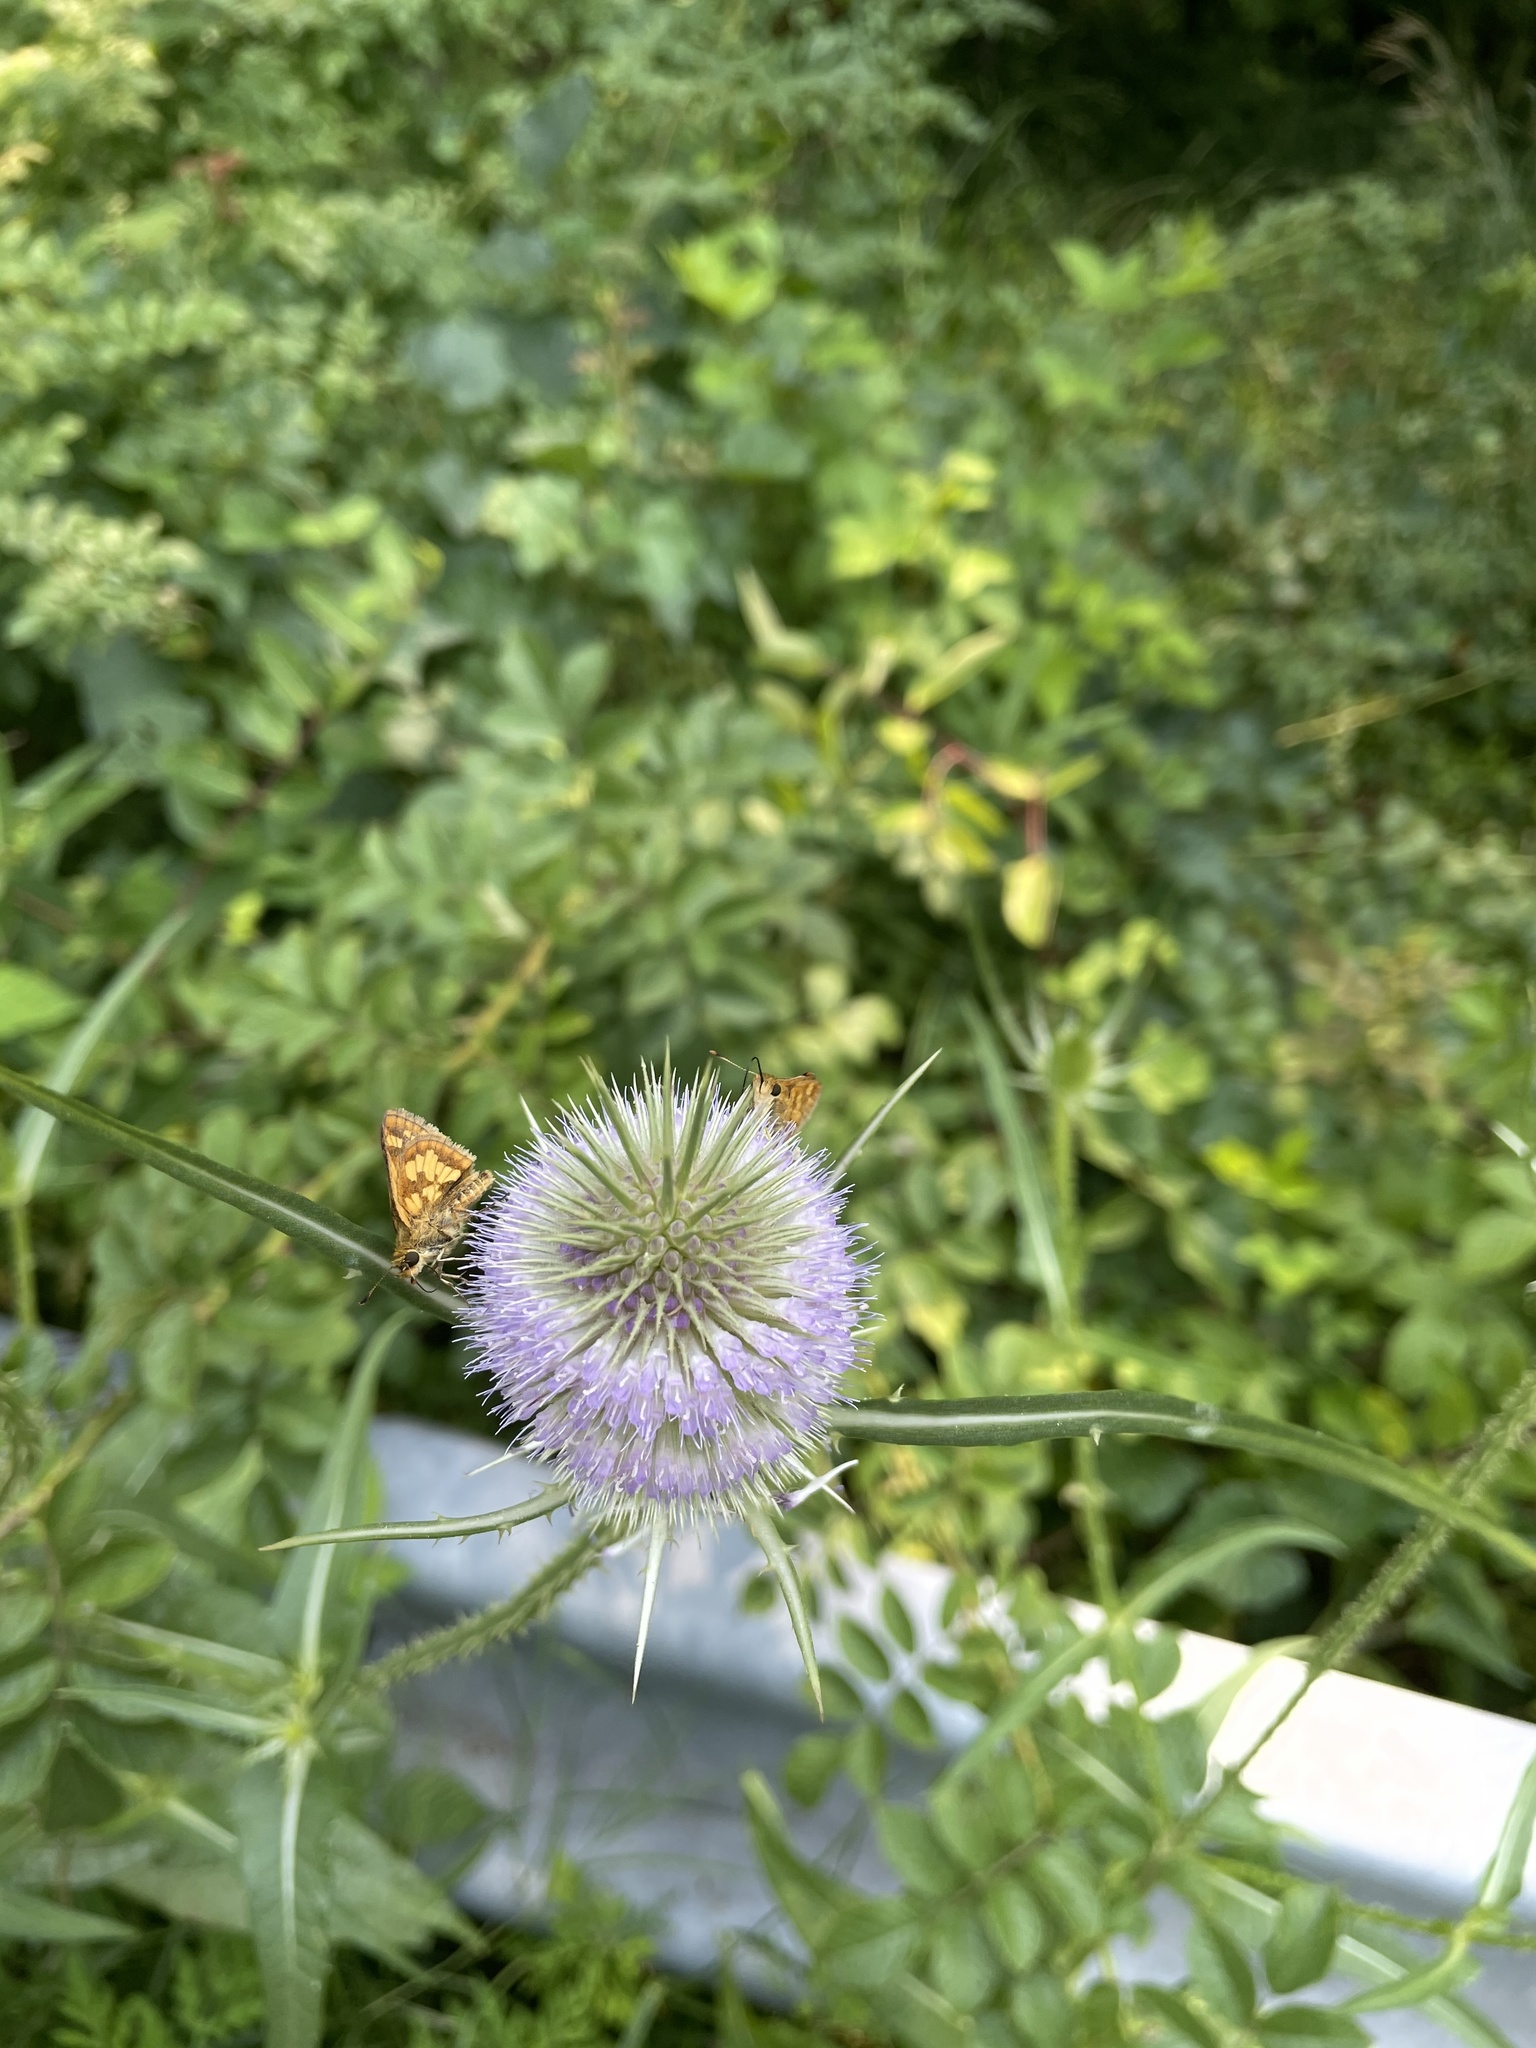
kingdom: Animalia
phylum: Arthropoda
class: Insecta
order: Lepidoptera
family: Hesperiidae
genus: Polites
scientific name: Polites coras
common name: Peck's skipper
